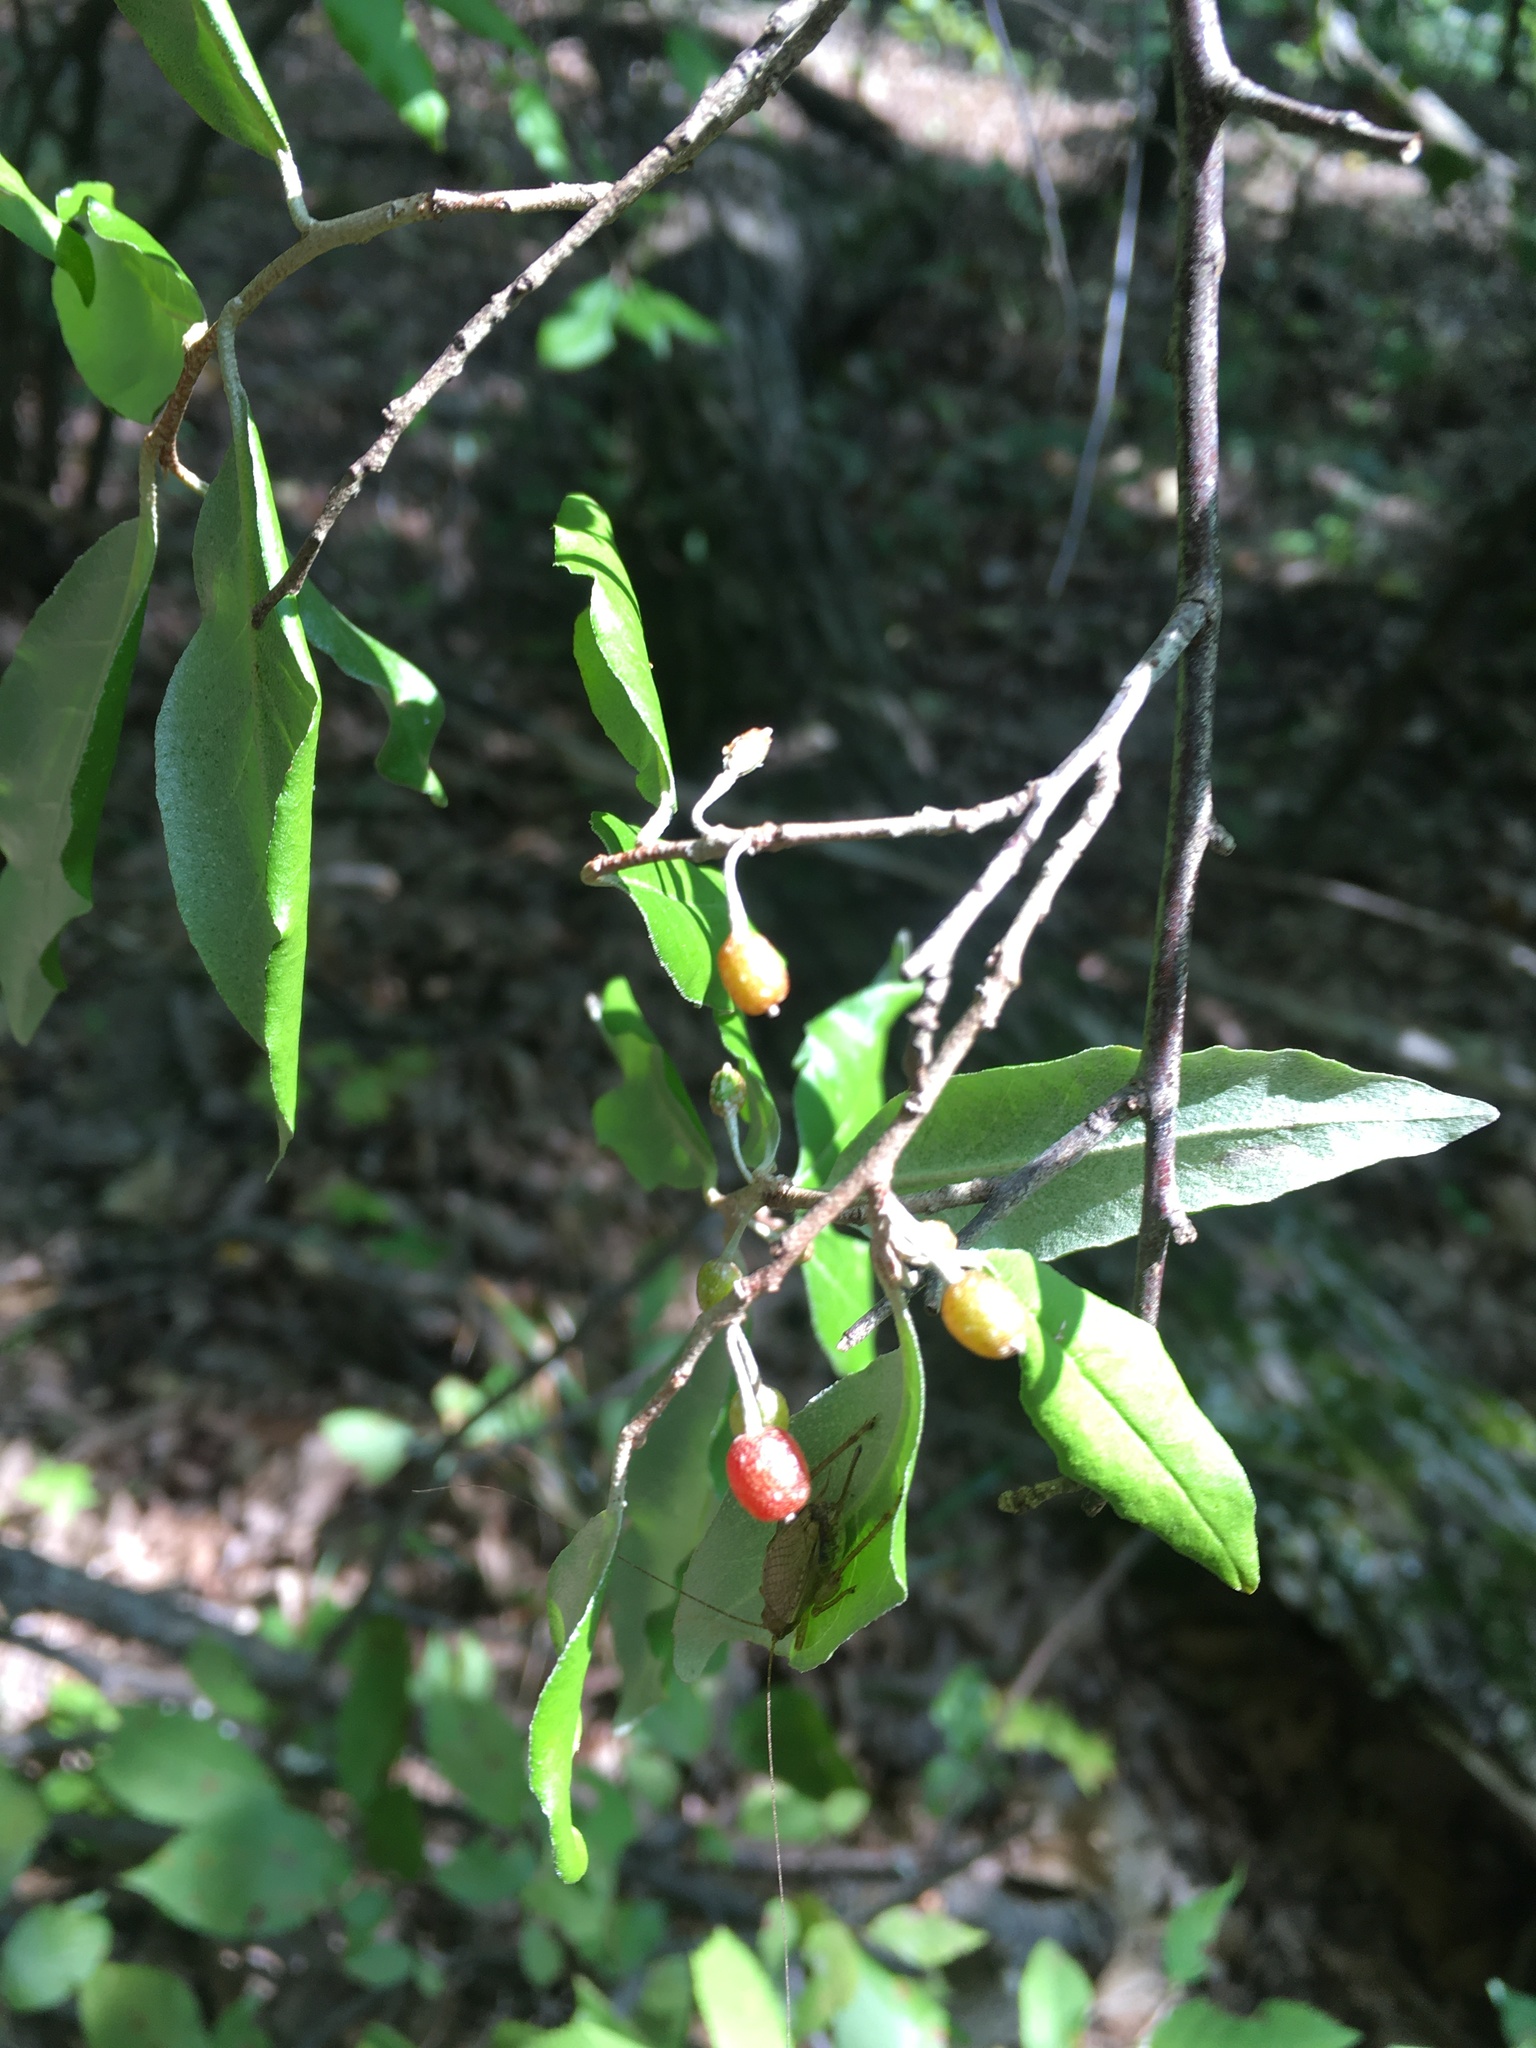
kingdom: Plantae
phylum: Tracheophyta
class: Magnoliopsida
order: Rosales
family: Elaeagnaceae
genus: Elaeagnus
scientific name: Elaeagnus umbellata
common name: Autumn olive
